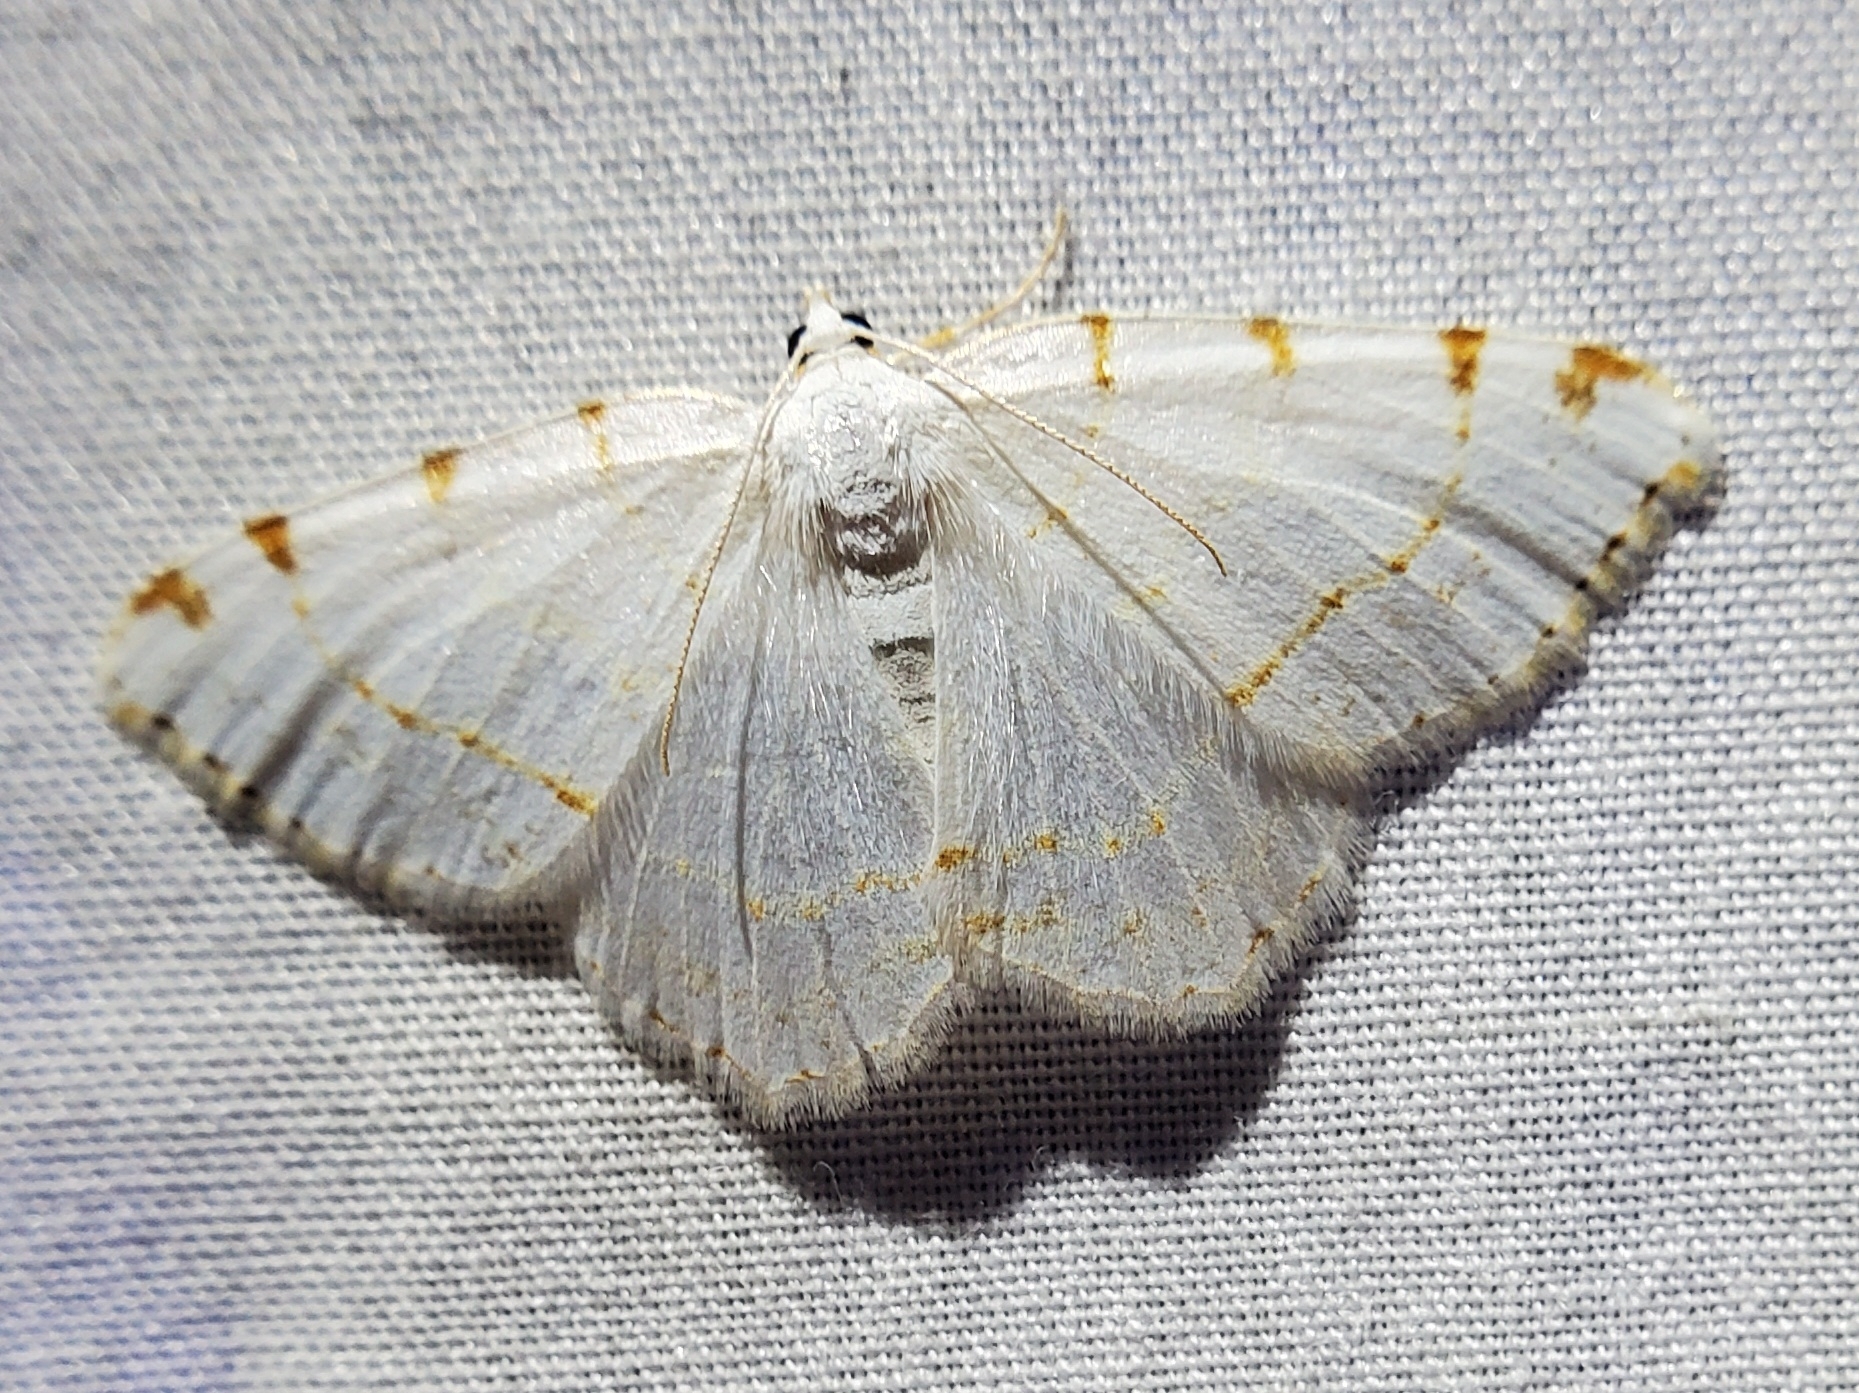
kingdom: Animalia
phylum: Arthropoda
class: Insecta
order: Lepidoptera
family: Geometridae
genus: Macaria
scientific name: Macaria pustularia
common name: Lesser maple spanworm moth
